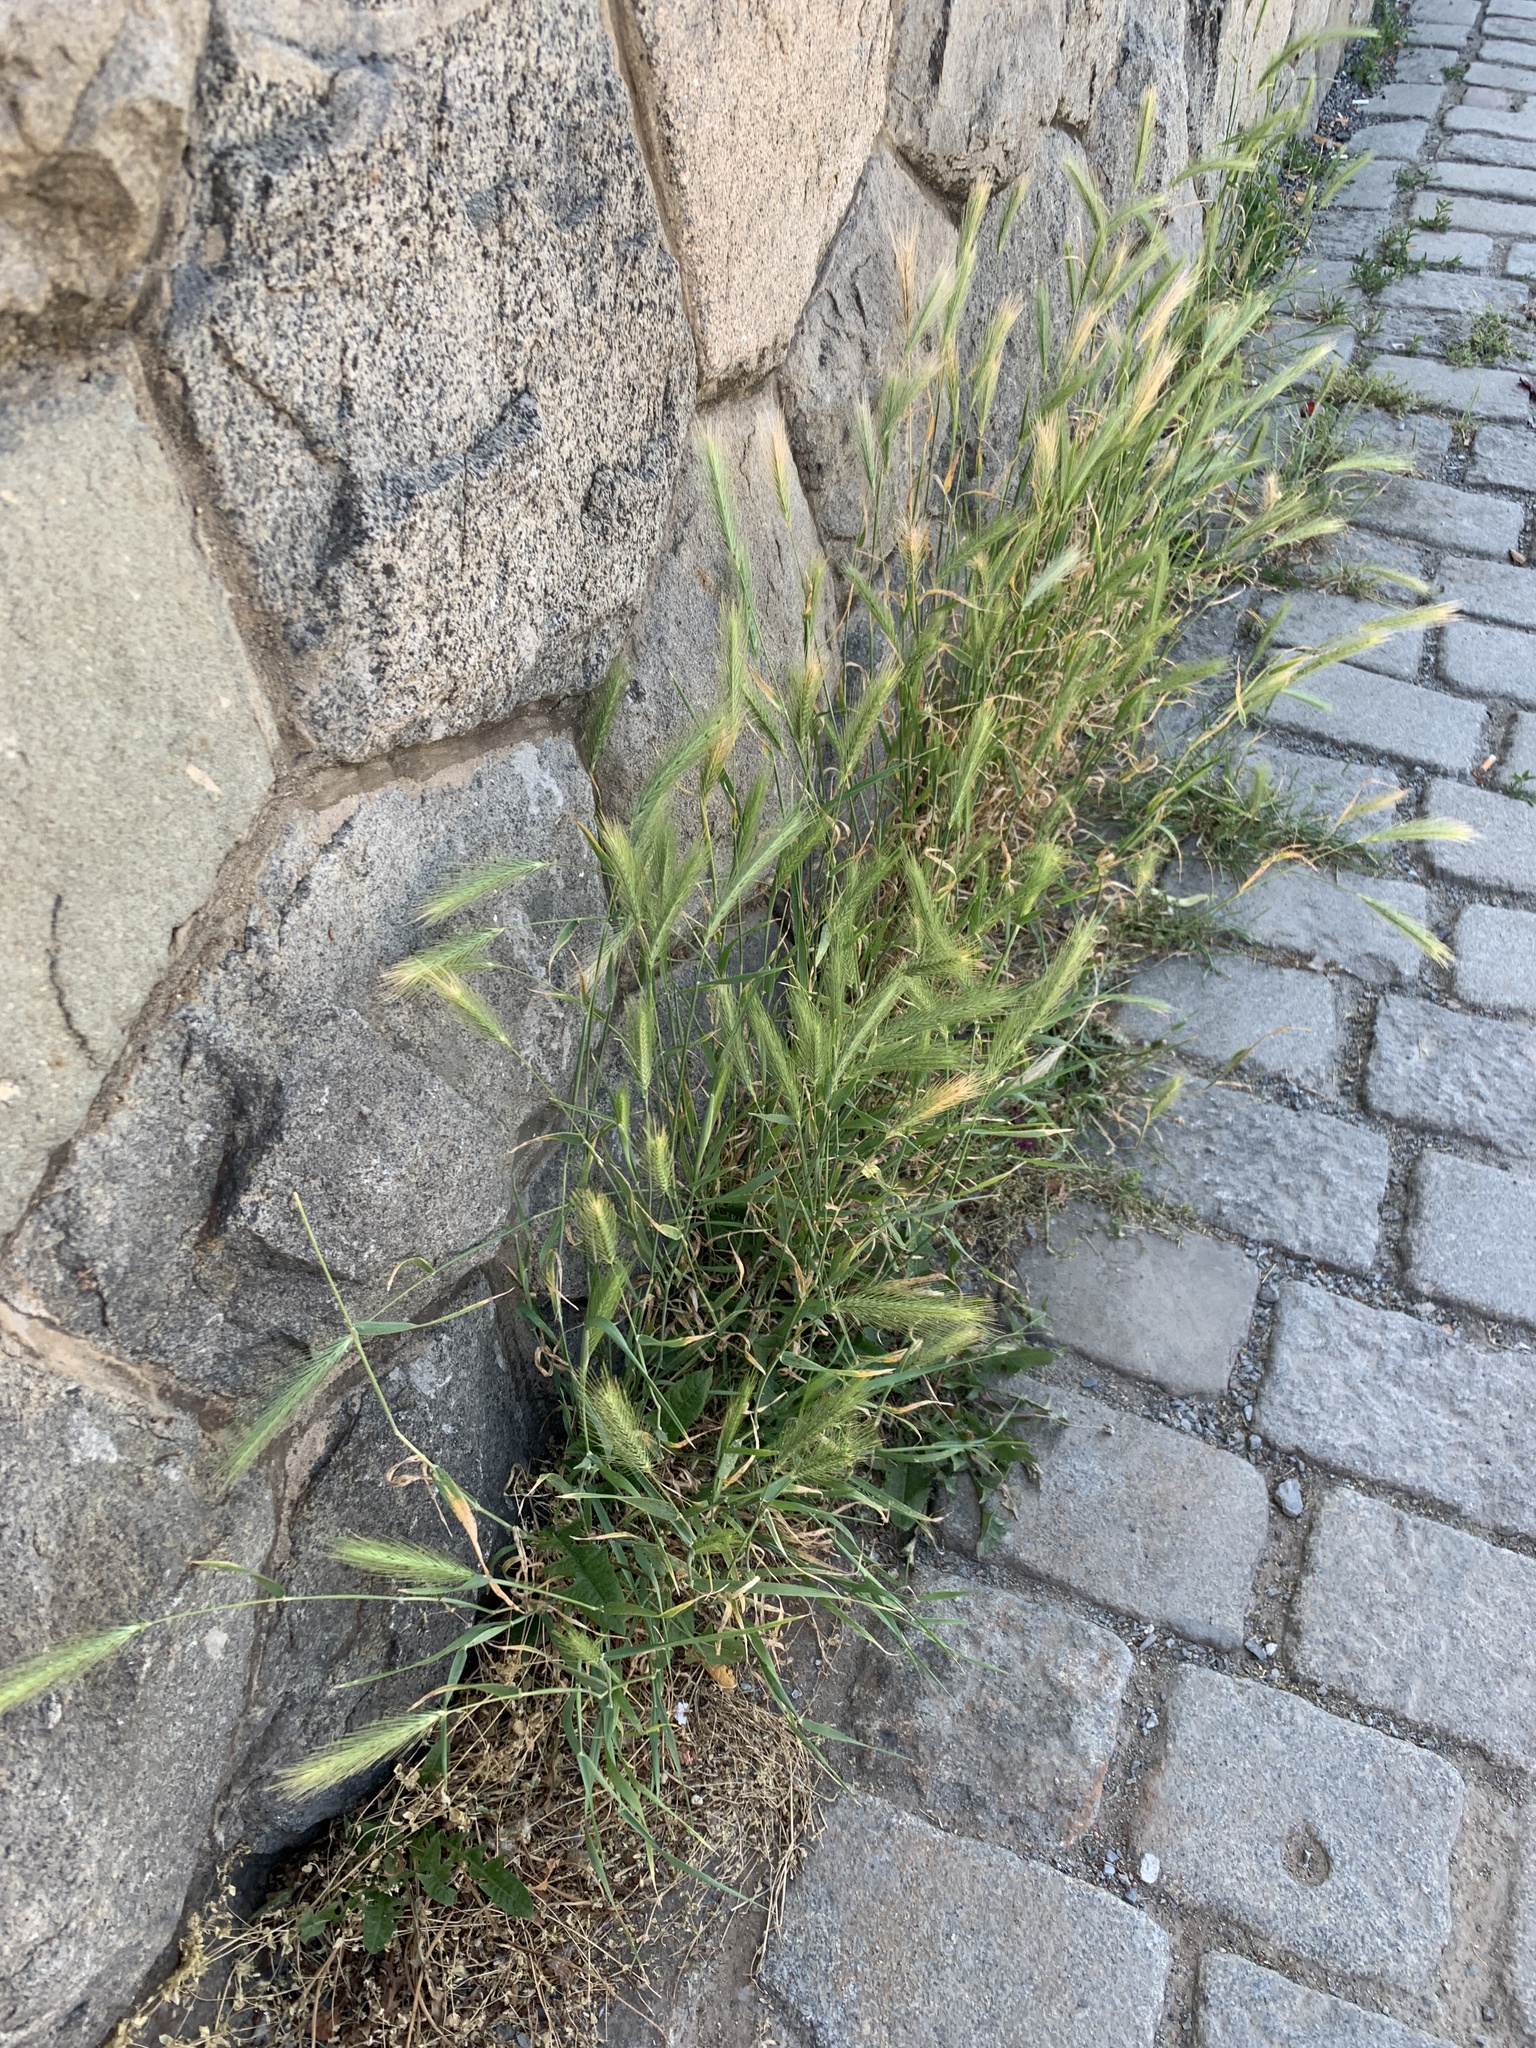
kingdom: Plantae
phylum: Tracheophyta
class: Liliopsida
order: Poales
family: Poaceae
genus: Hordeum
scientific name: Hordeum murinum
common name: Wall barley
